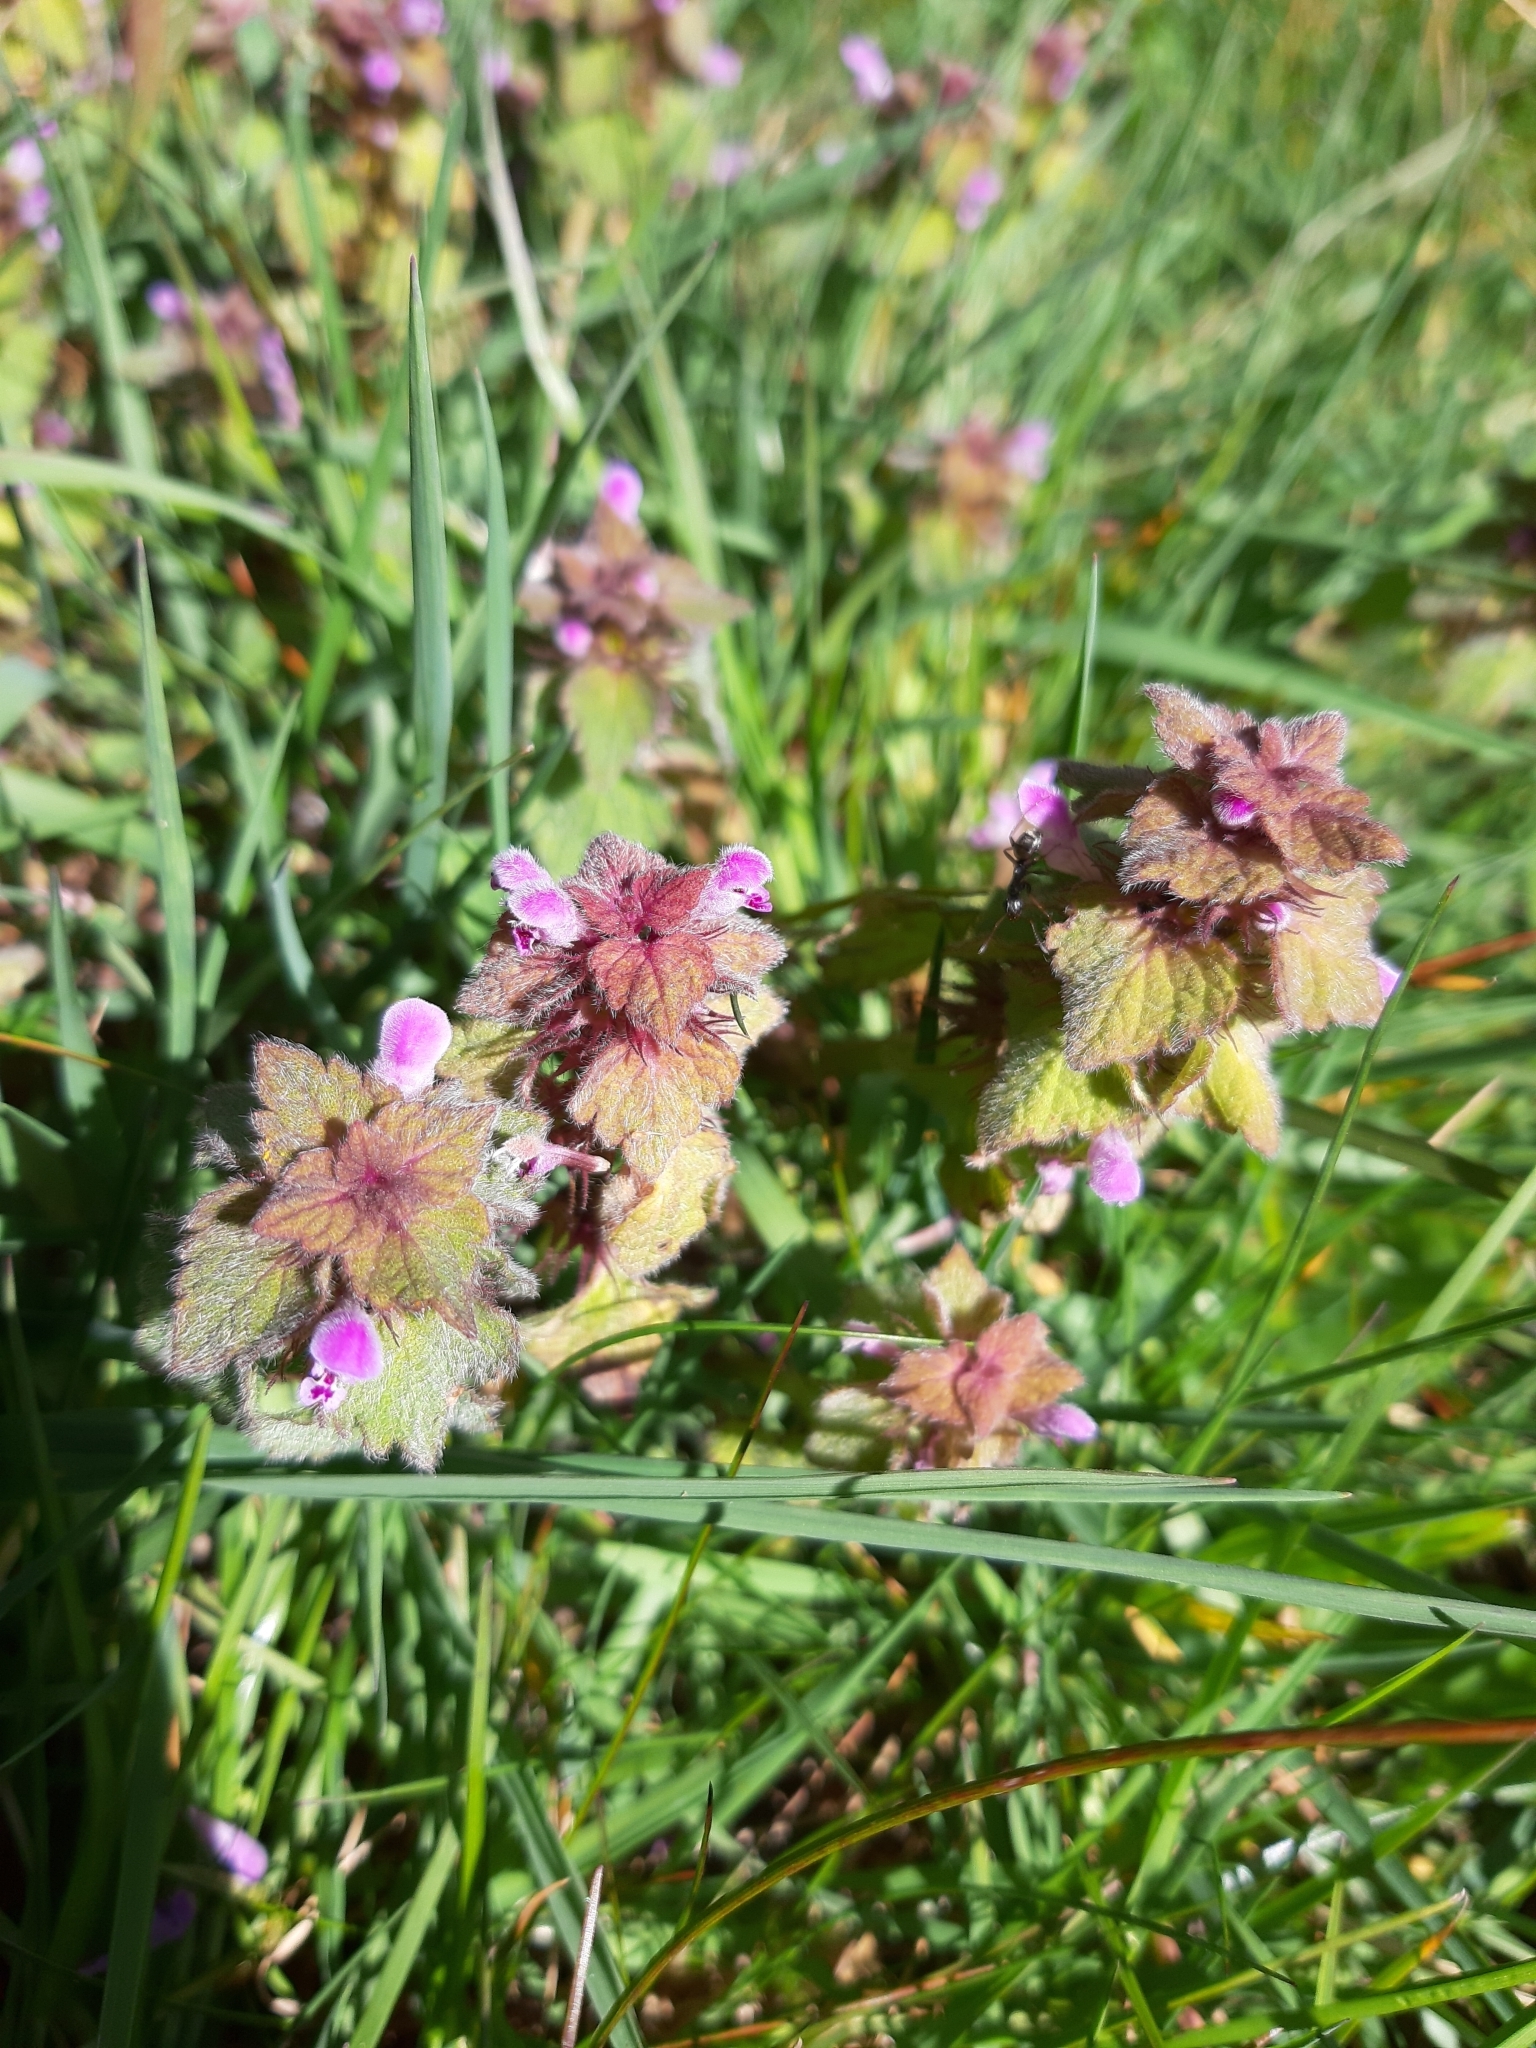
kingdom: Plantae
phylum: Tracheophyta
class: Magnoliopsida
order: Lamiales
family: Lamiaceae
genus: Lamium
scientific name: Lamium purpureum
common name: Red dead-nettle
